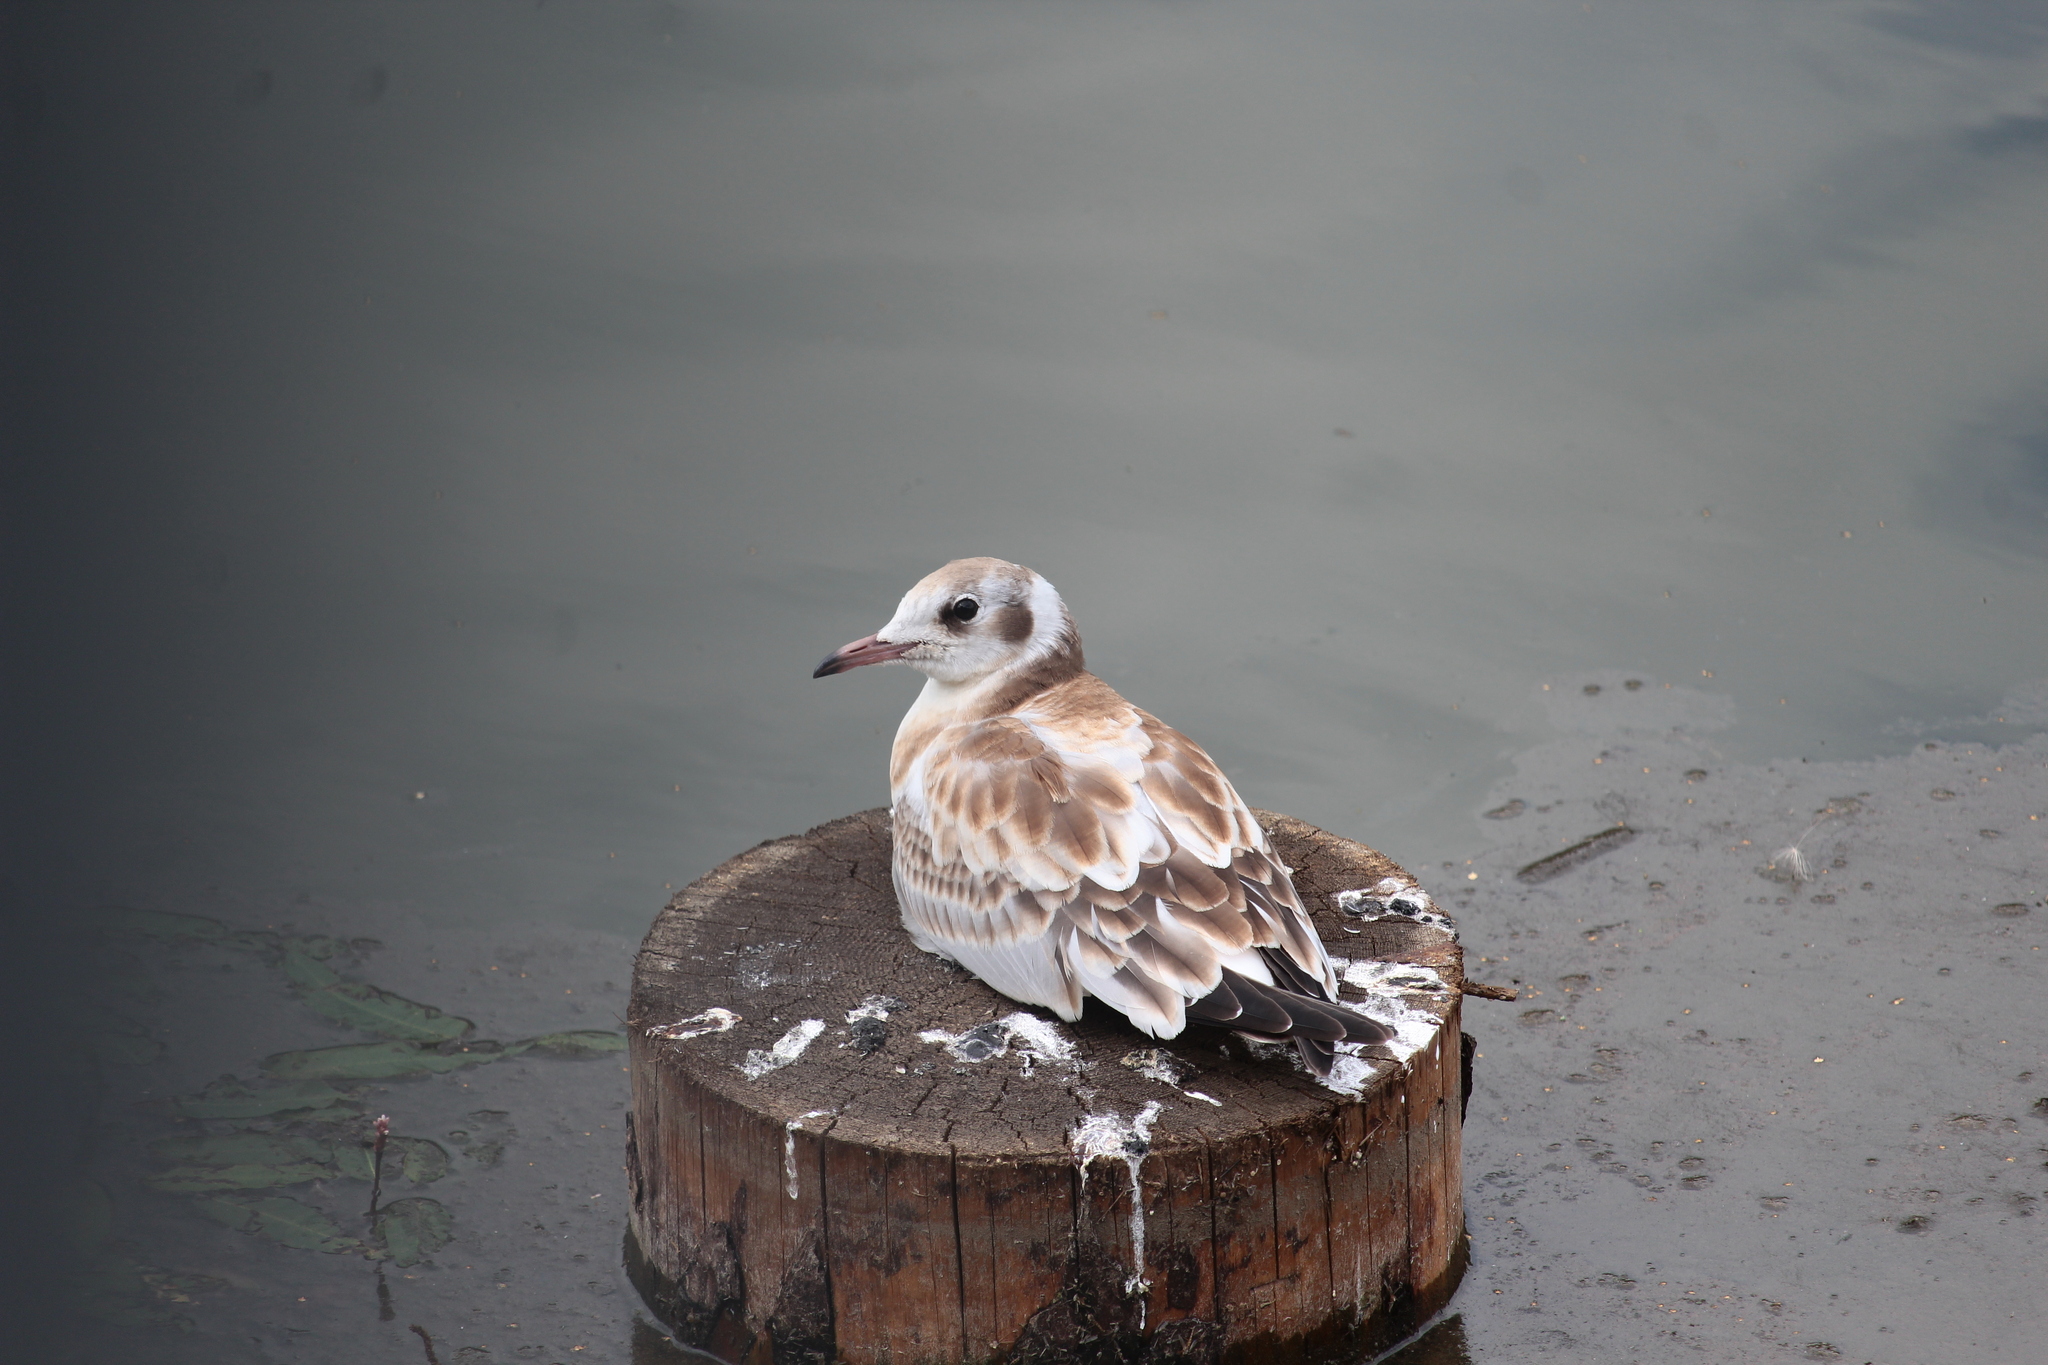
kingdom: Animalia
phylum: Chordata
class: Aves
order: Charadriiformes
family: Laridae
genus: Chroicocephalus
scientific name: Chroicocephalus ridibundus
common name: Black-headed gull
